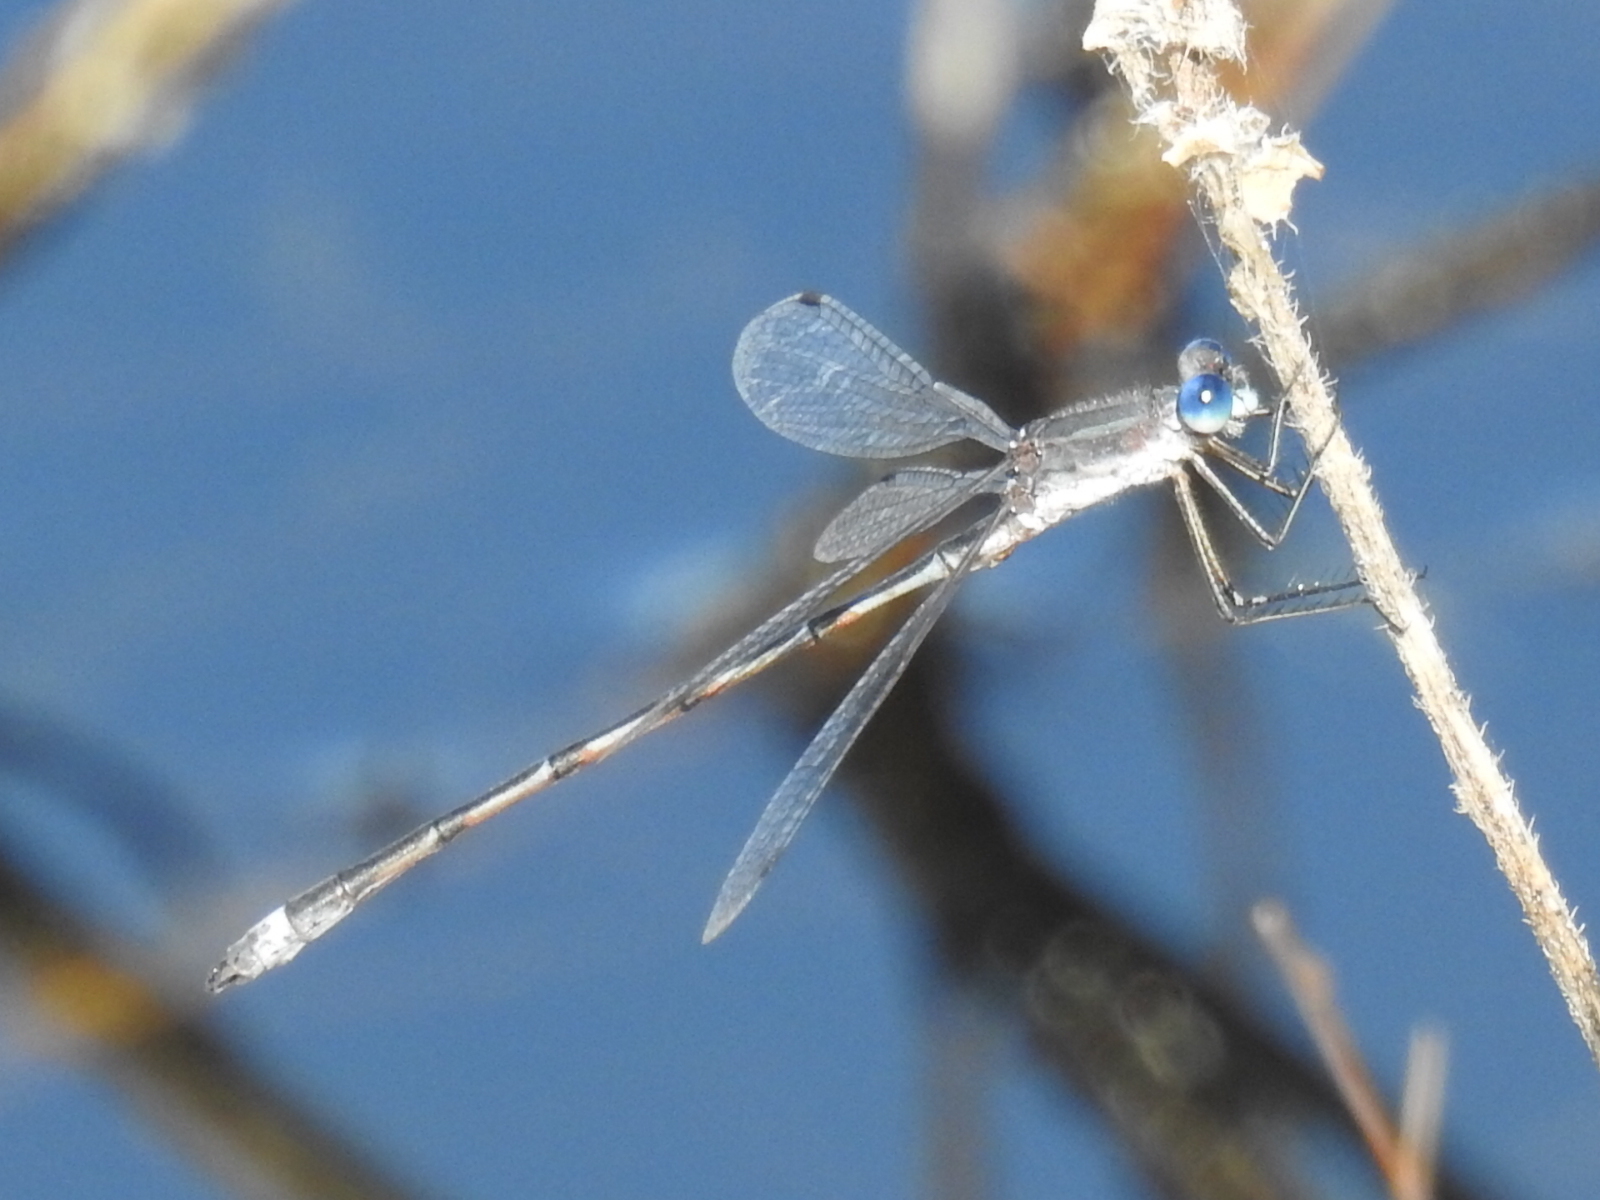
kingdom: Animalia
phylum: Arthropoda
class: Insecta
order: Odonata
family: Lestidae
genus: Lestes
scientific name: Lestes australis
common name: Southern spreadwing
